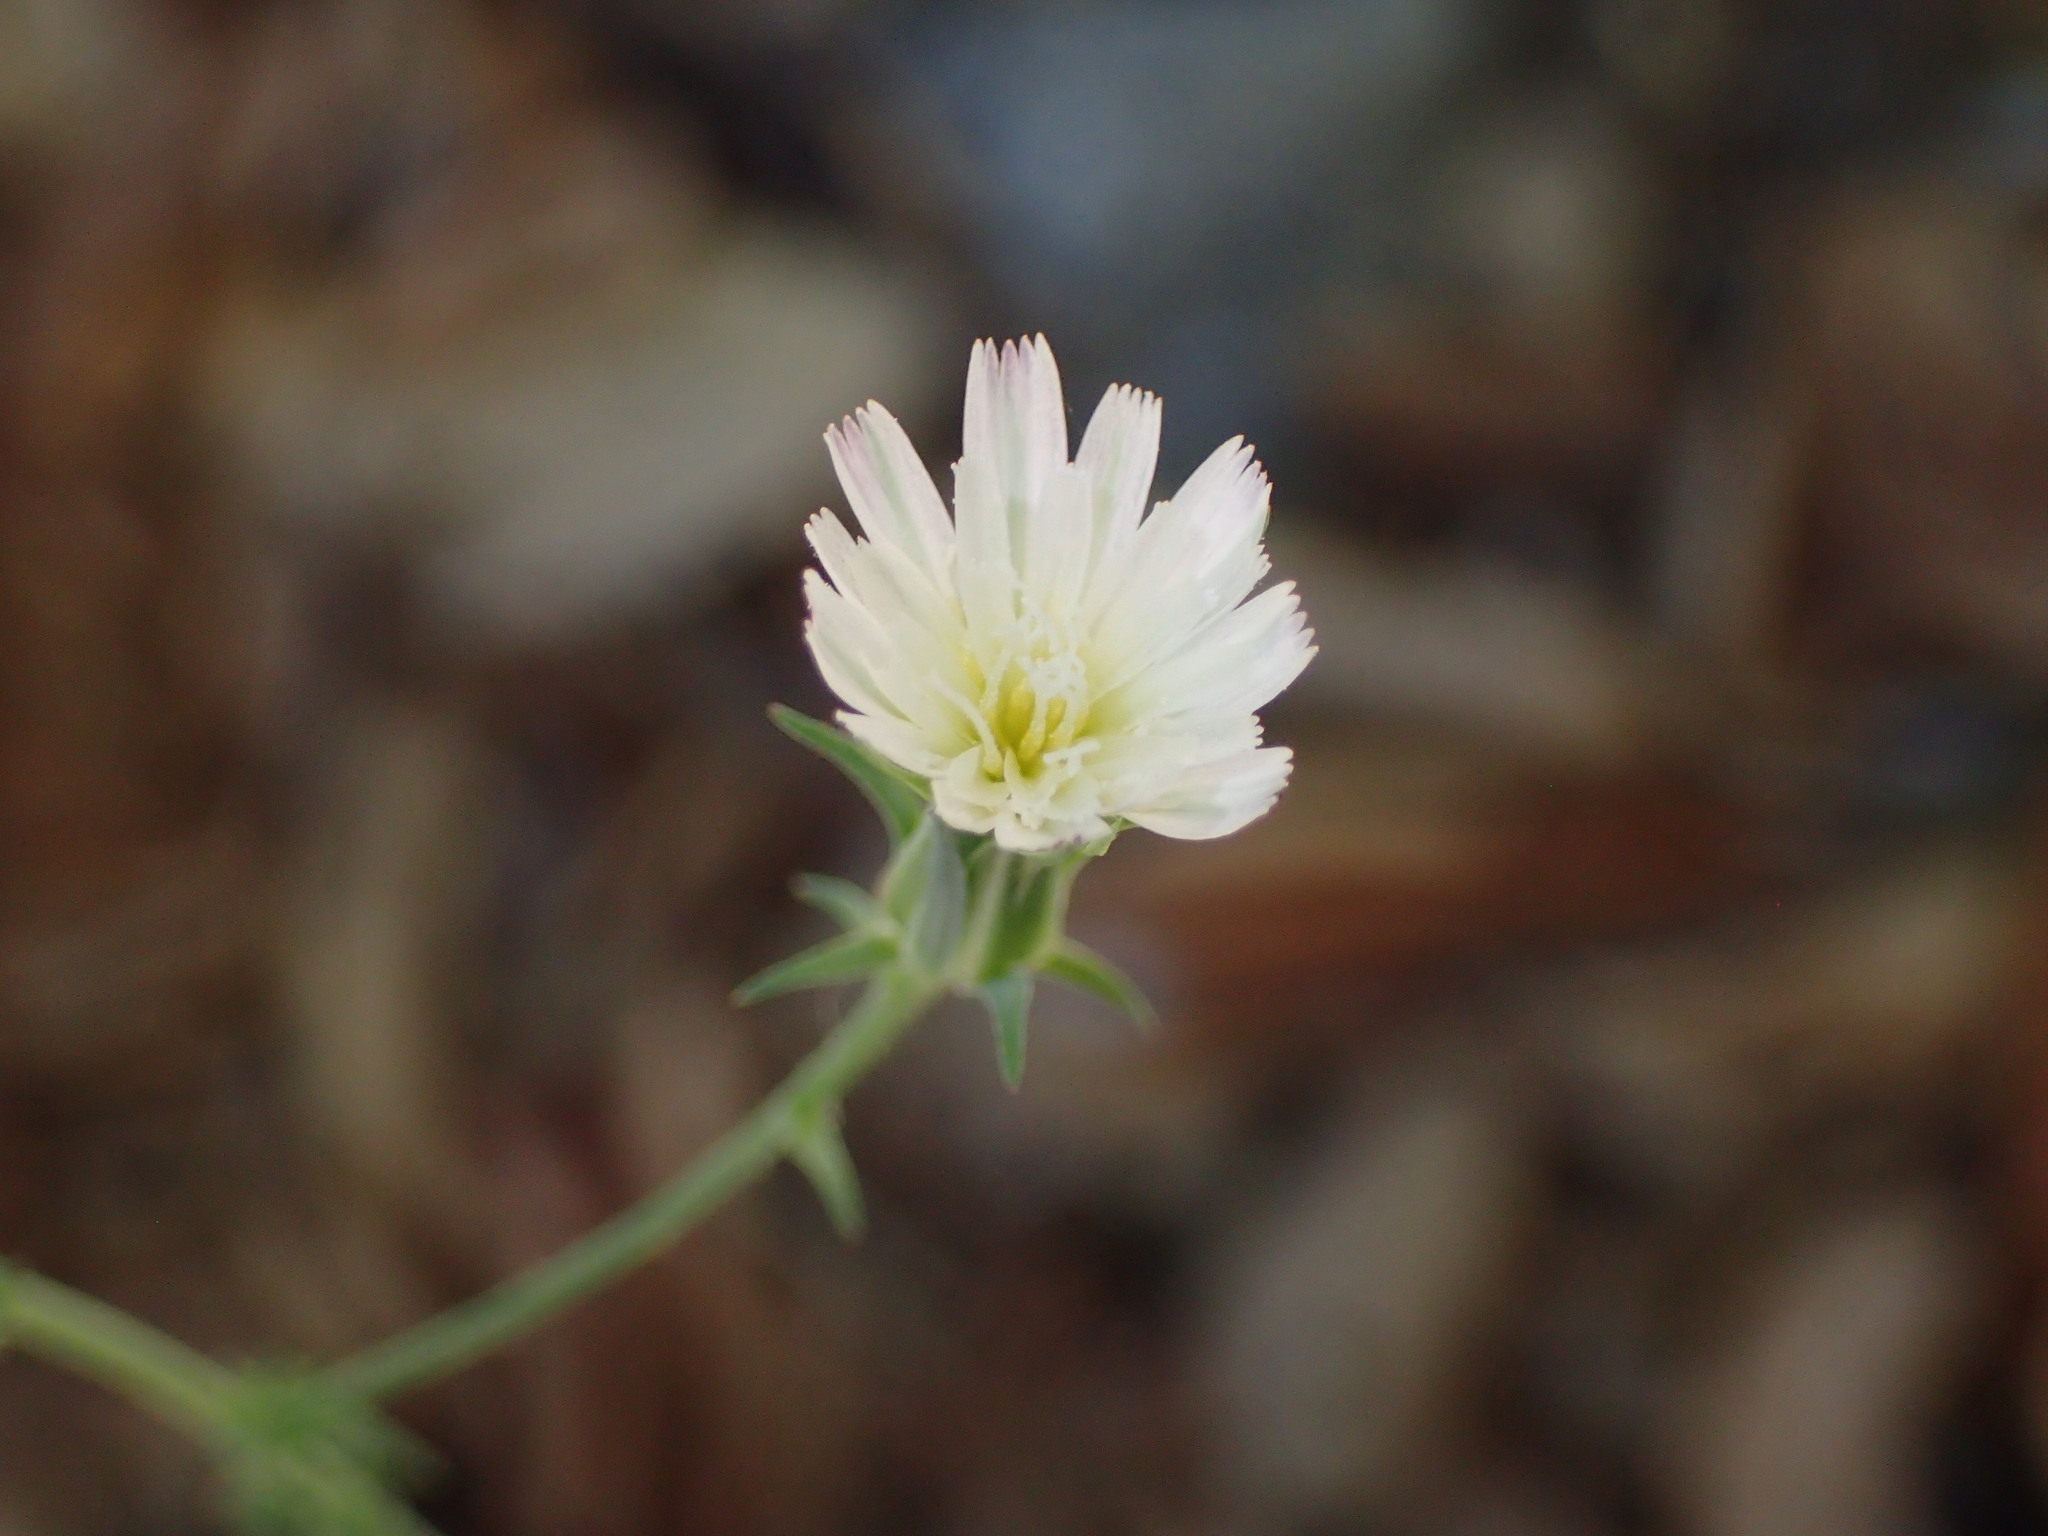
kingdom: Plantae
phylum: Tracheophyta
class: Magnoliopsida
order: Asterales
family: Asteraceae
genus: Rafinesquia
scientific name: Rafinesquia californica
